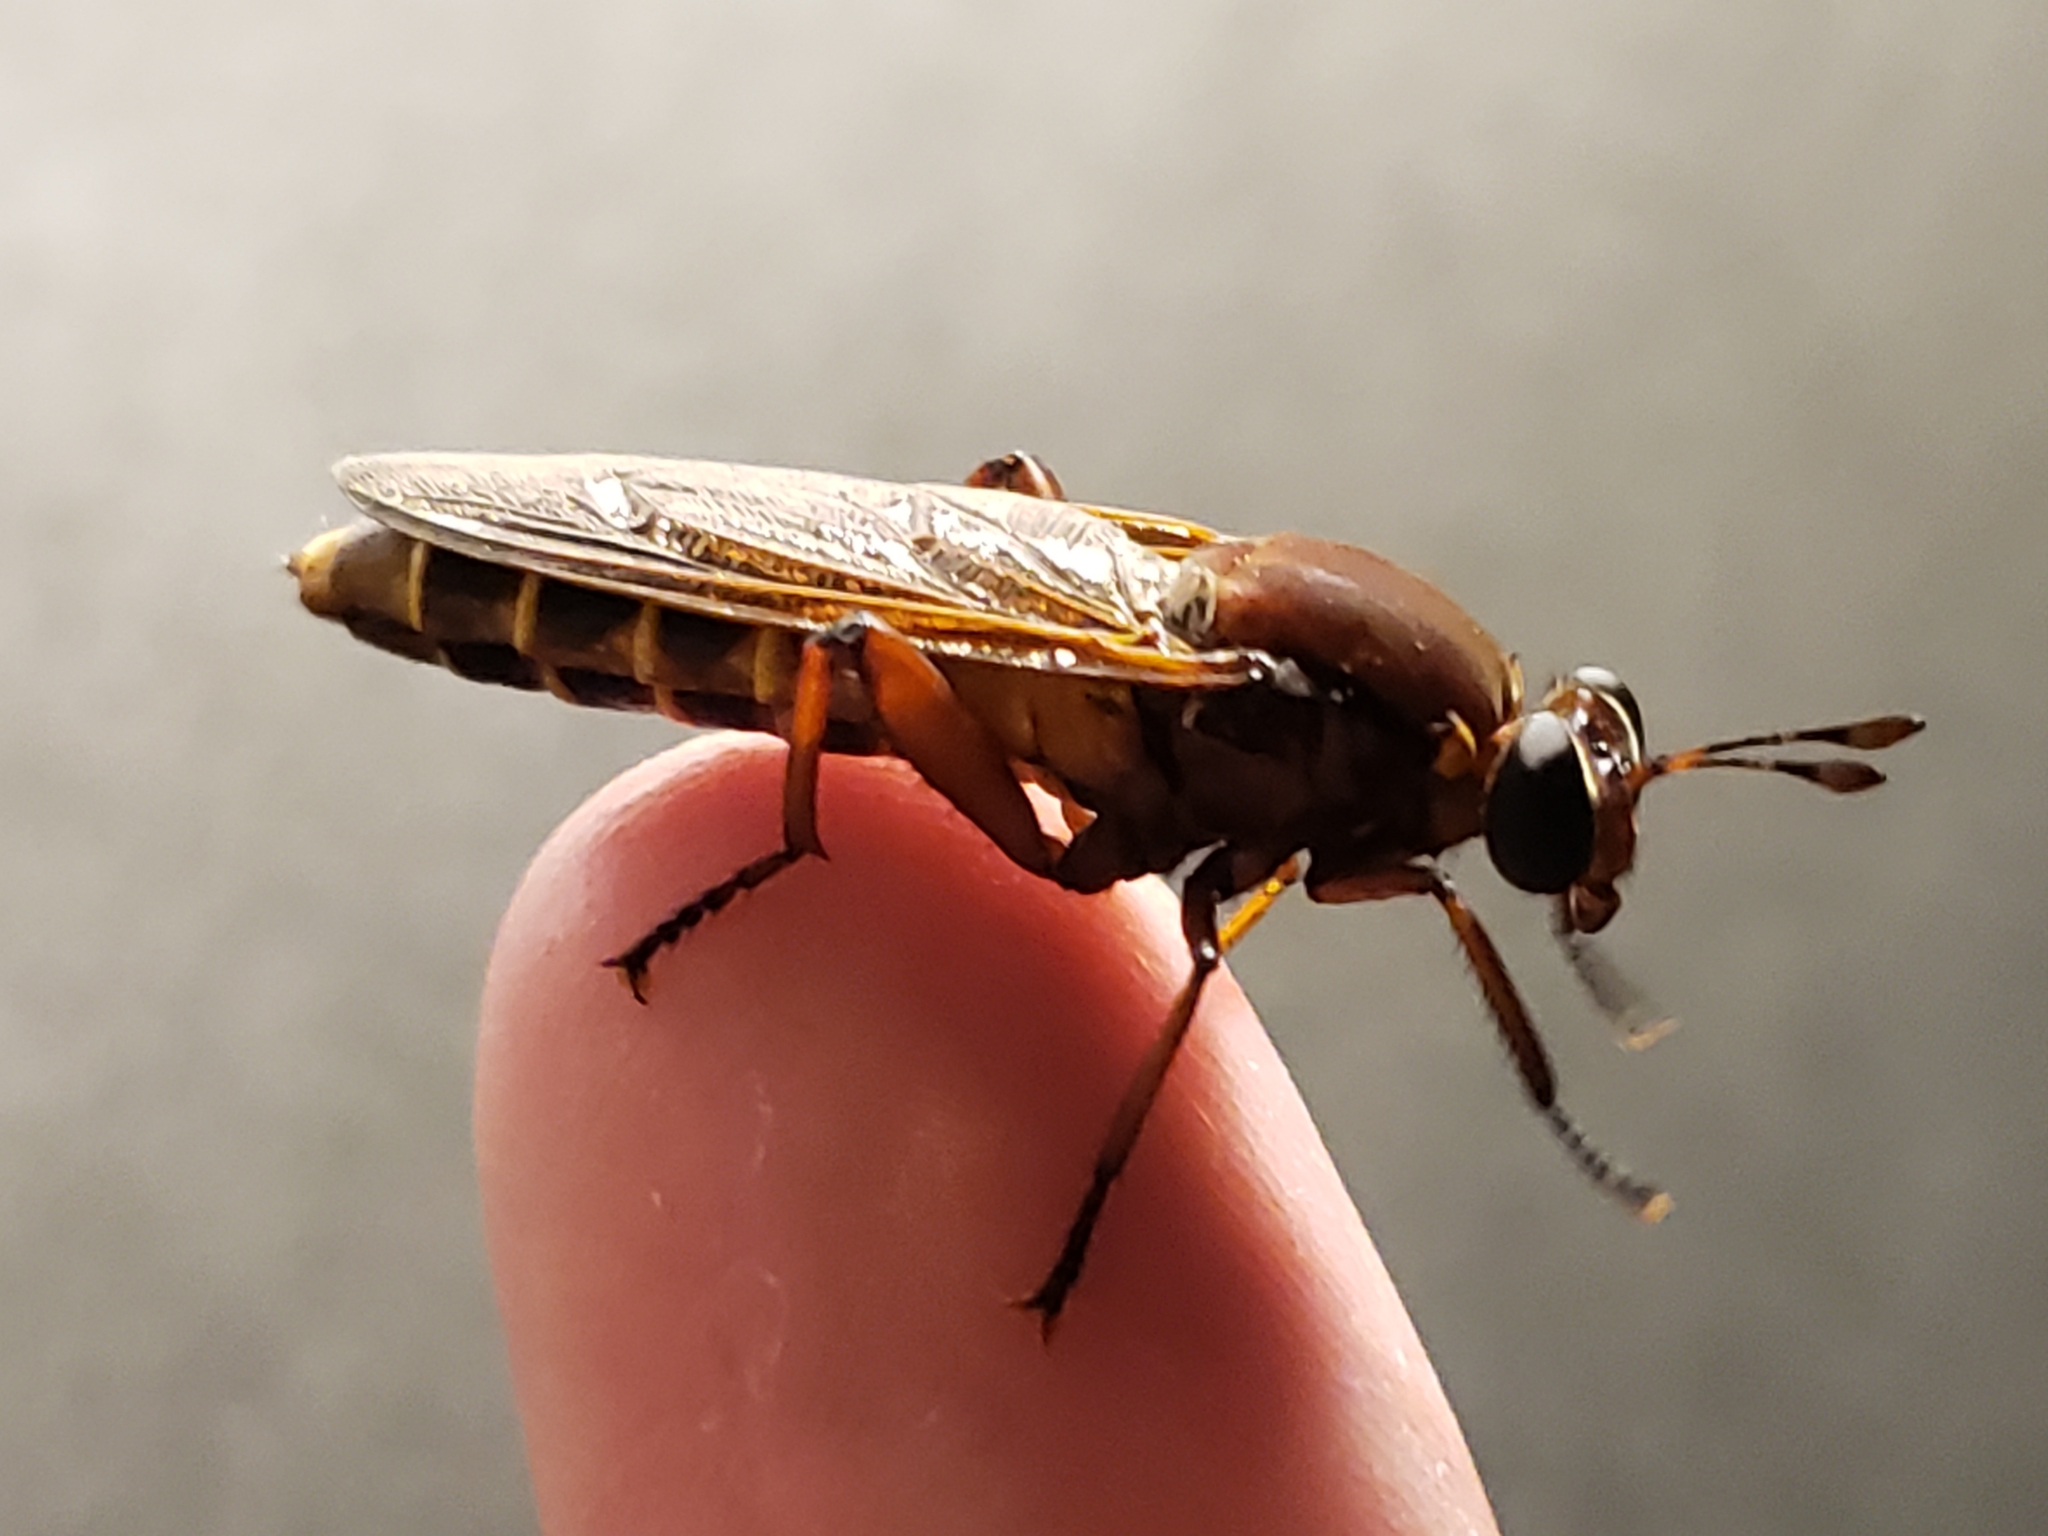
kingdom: Animalia
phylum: Arthropoda
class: Insecta
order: Diptera
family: Mydidae
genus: Mydas
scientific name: Mydas maculiventris
